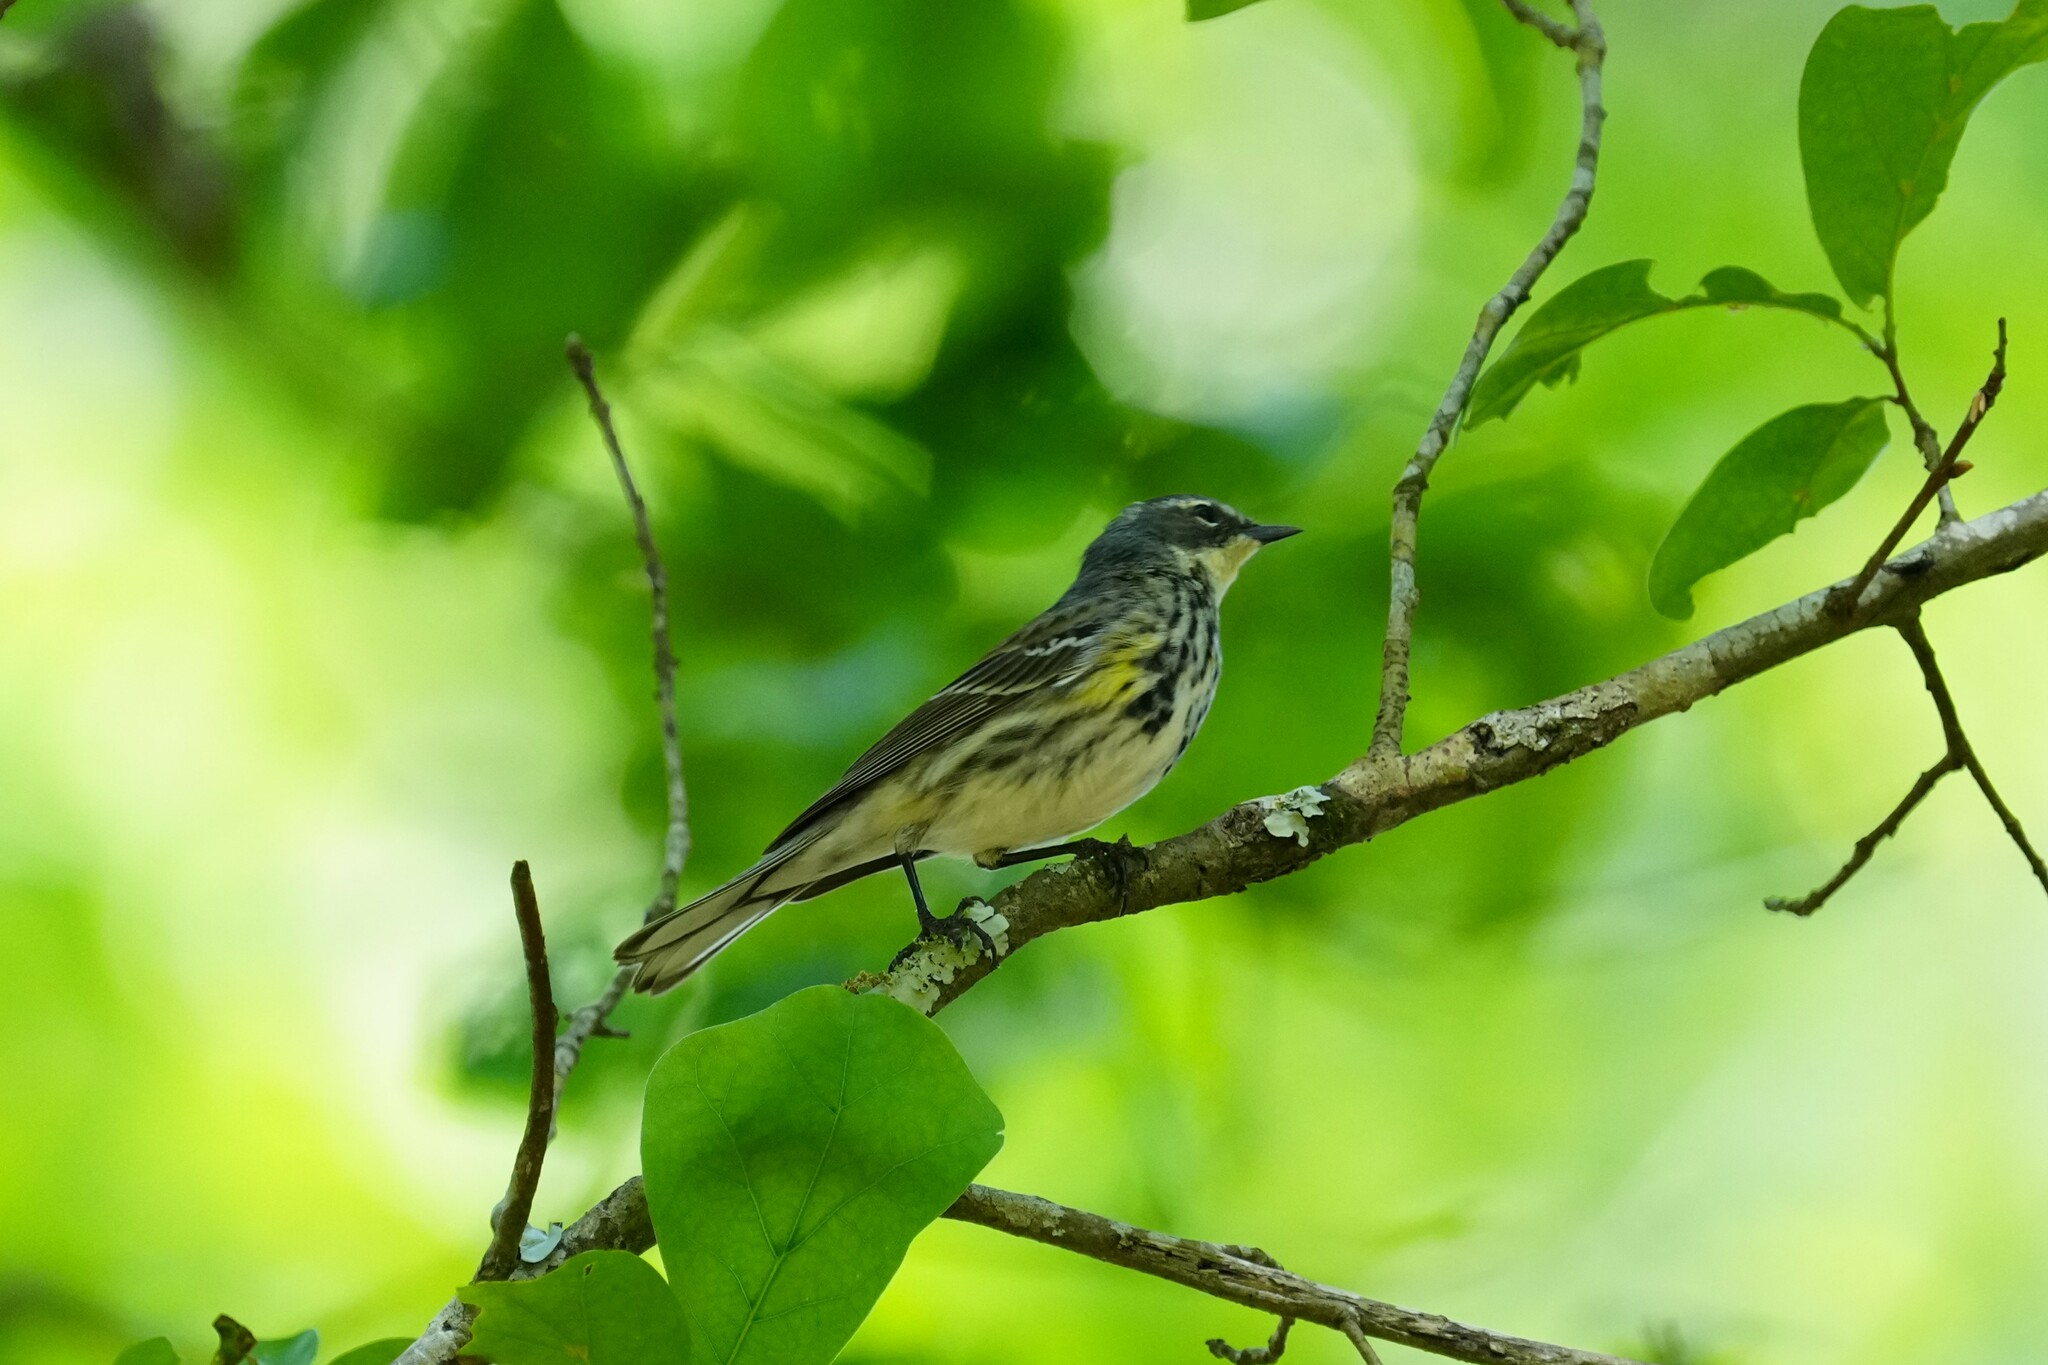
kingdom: Animalia
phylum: Chordata
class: Aves
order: Passeriformes
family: Parulidae
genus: Setophaga
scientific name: Setophaga coronata
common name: Myrtle warbler
